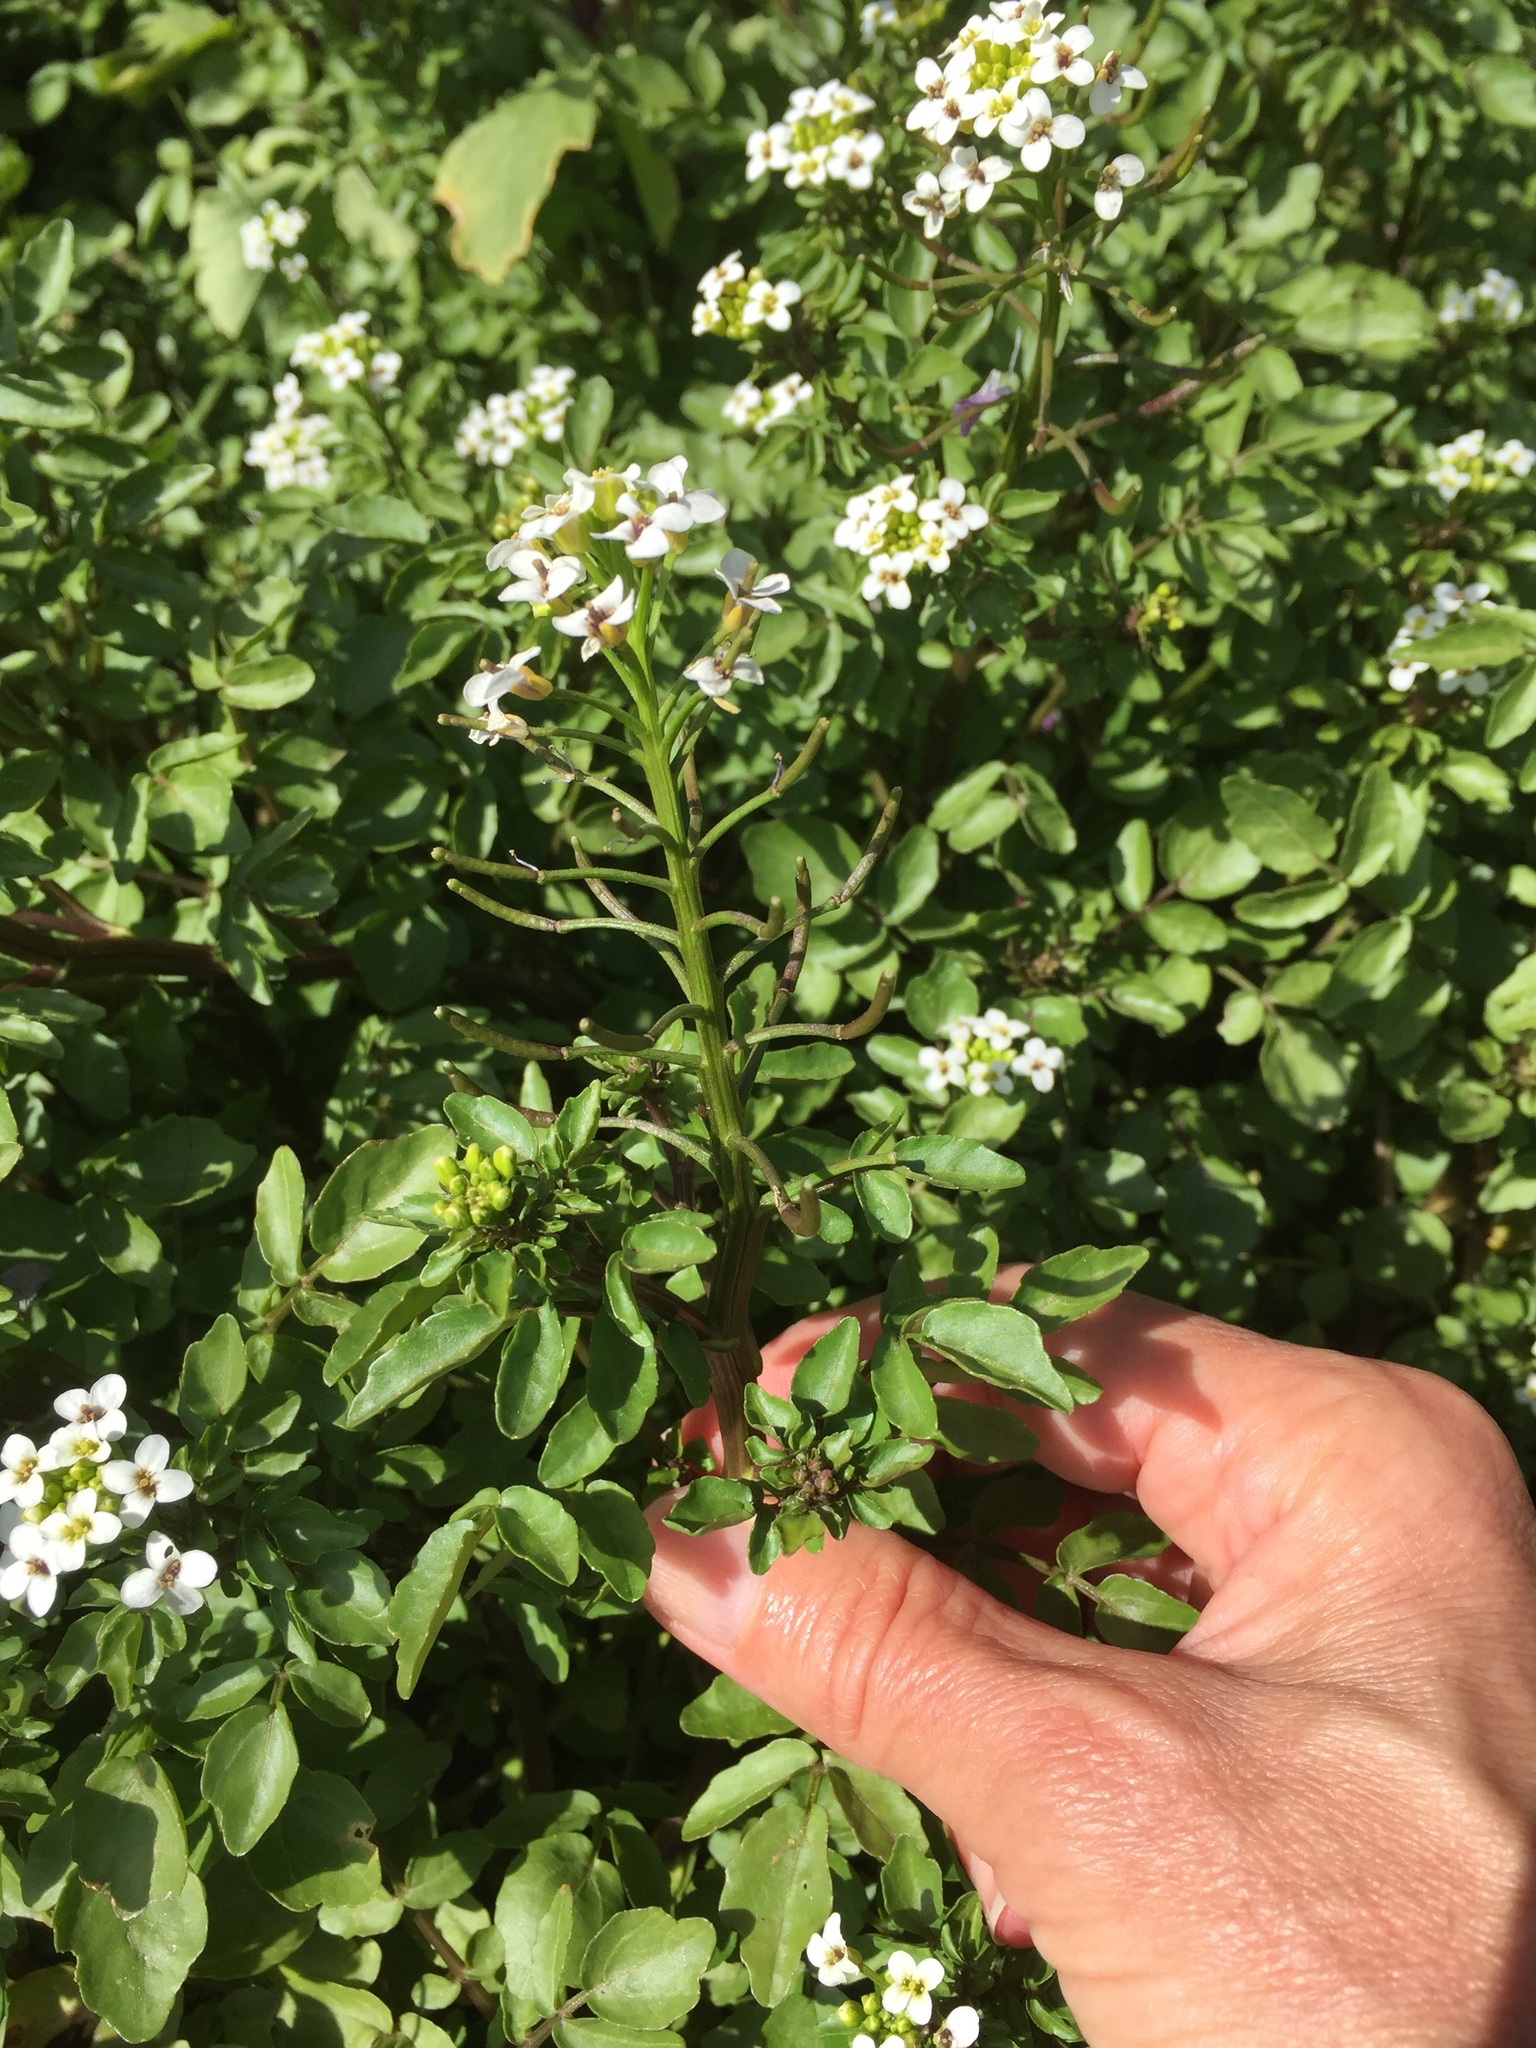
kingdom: Plantae
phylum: Tracheophyta
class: Magnoliopsida
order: Brassicales
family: Brassicaceae
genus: Nasturtium
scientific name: Nasturtium officinale
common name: Watercress
